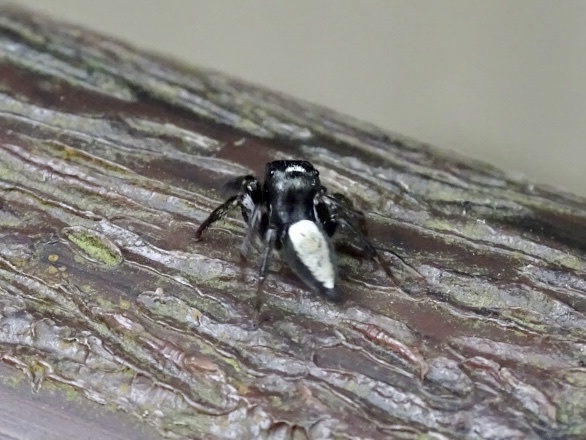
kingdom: Animalia
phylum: Arthropoda
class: Arachnida
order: Araneae
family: Salticidae
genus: Ptocasius
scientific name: Ptocasius strupifer
